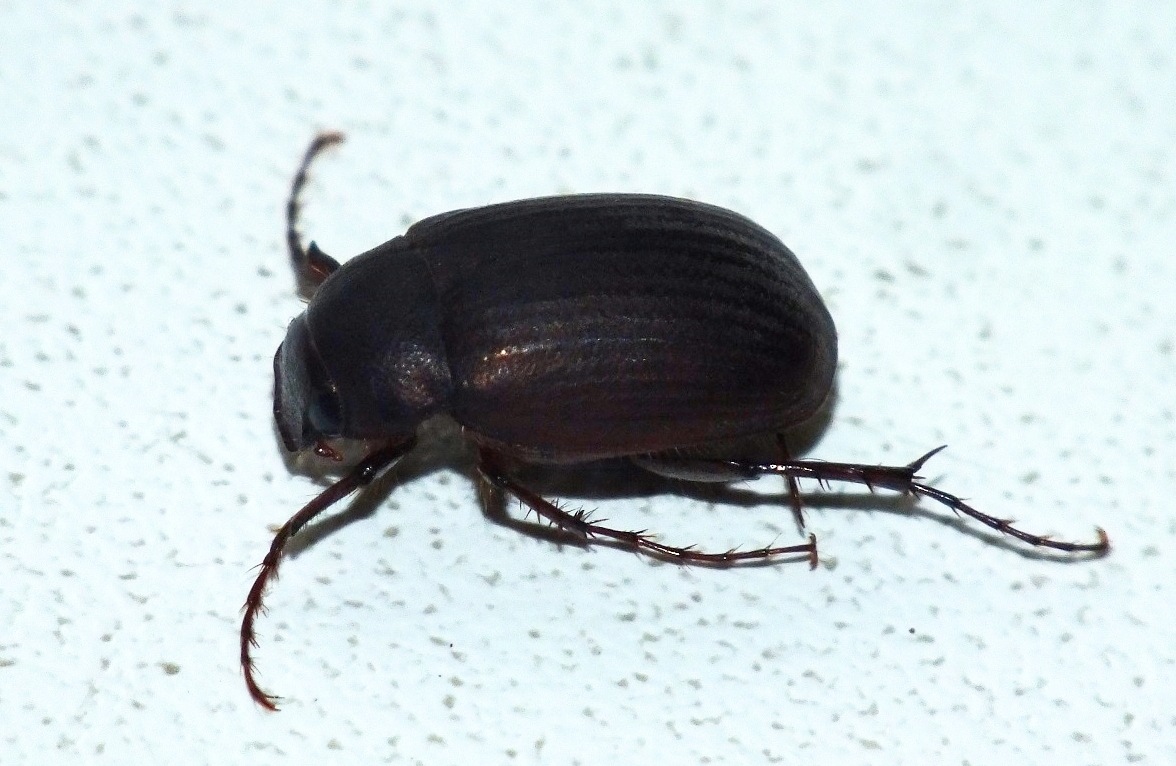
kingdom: Animalia
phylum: Arthropoda
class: Insecta
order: Coleoptera
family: Scarabaeidae
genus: Maladera
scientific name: Maladera holosericea
